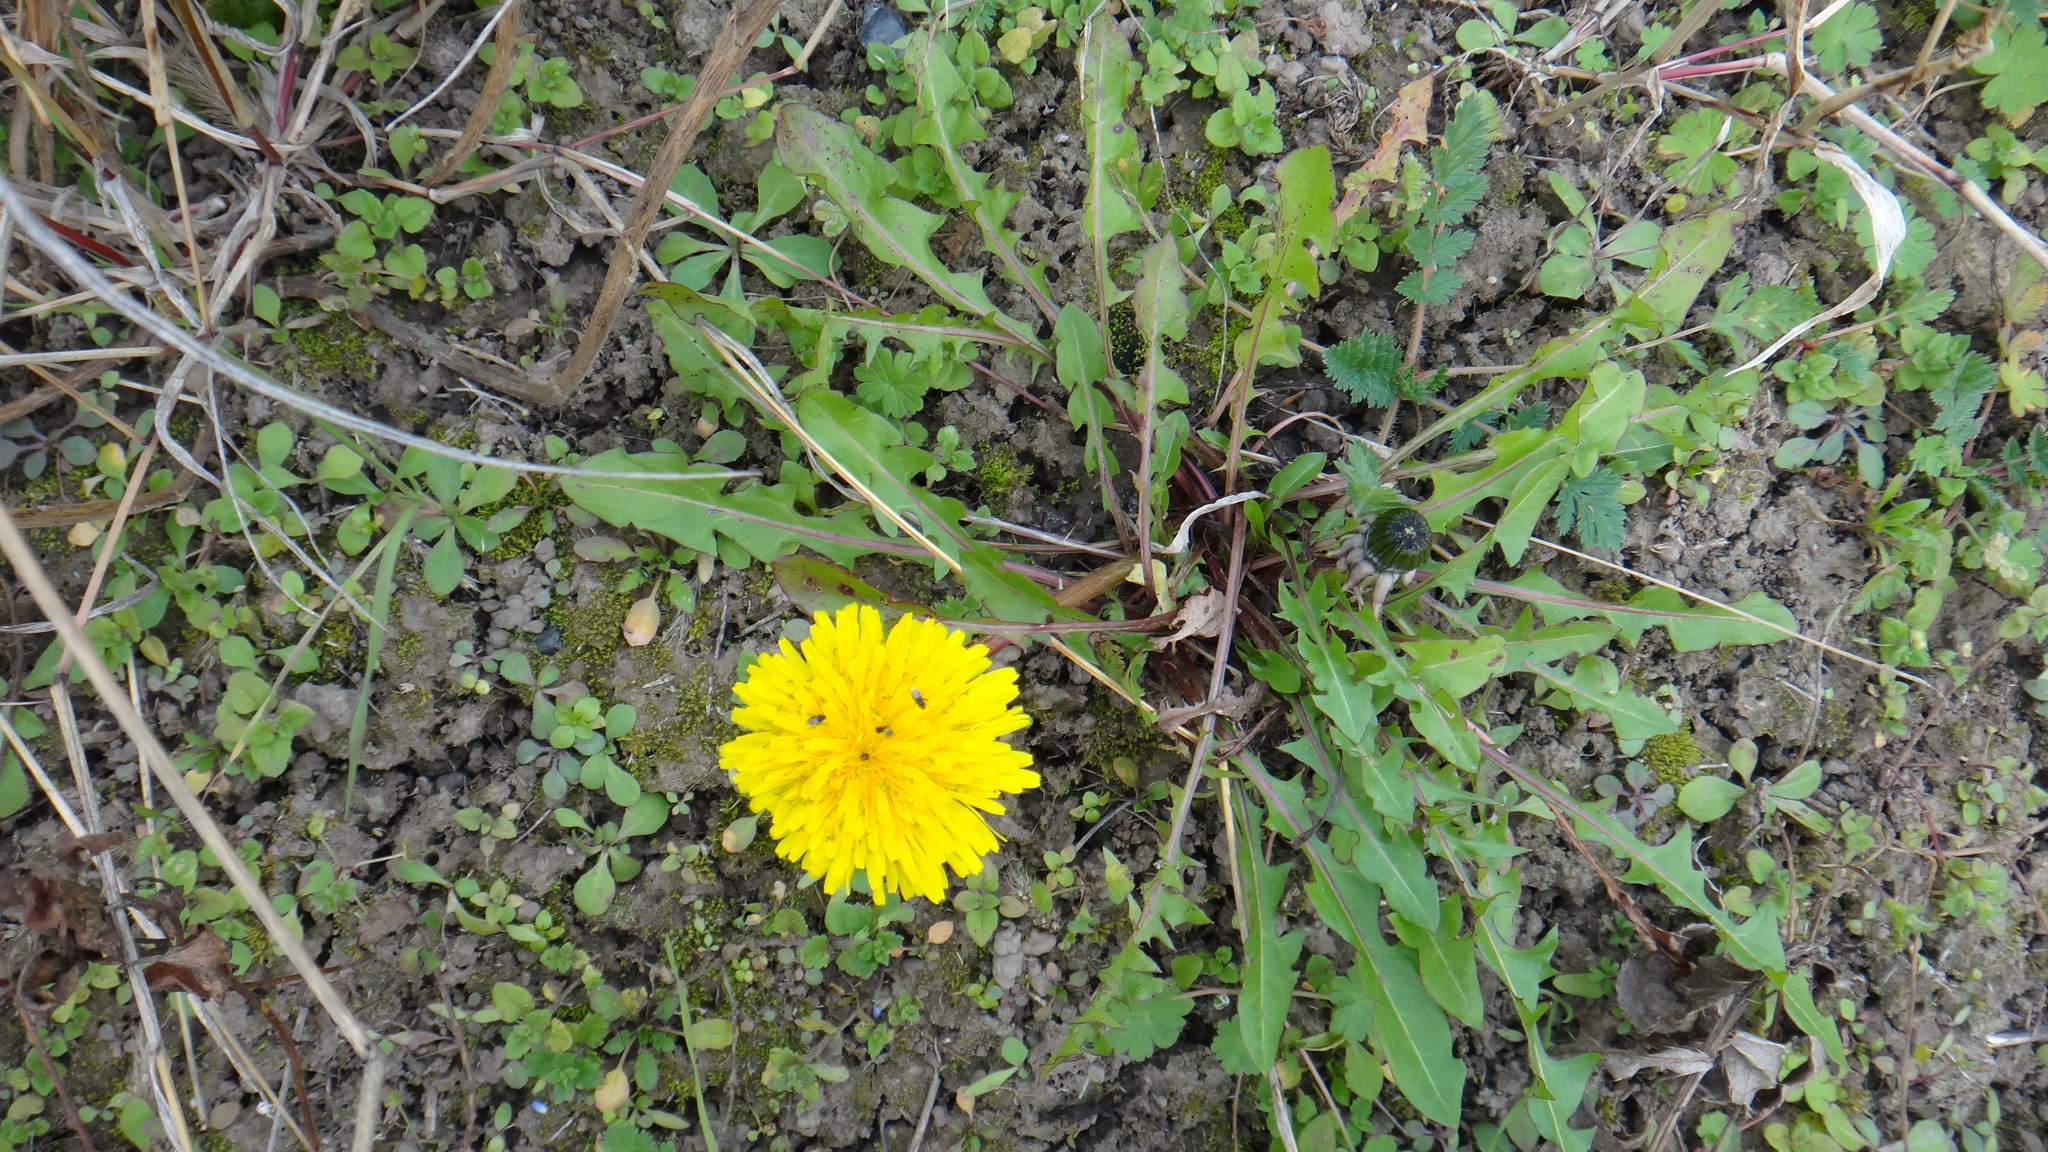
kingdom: Plantae
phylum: Tracheophyta
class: Magnoliopsida
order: Asterales
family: Asteraceae
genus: Taraxacum
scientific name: Taraxacum officinale
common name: Common dandelion
